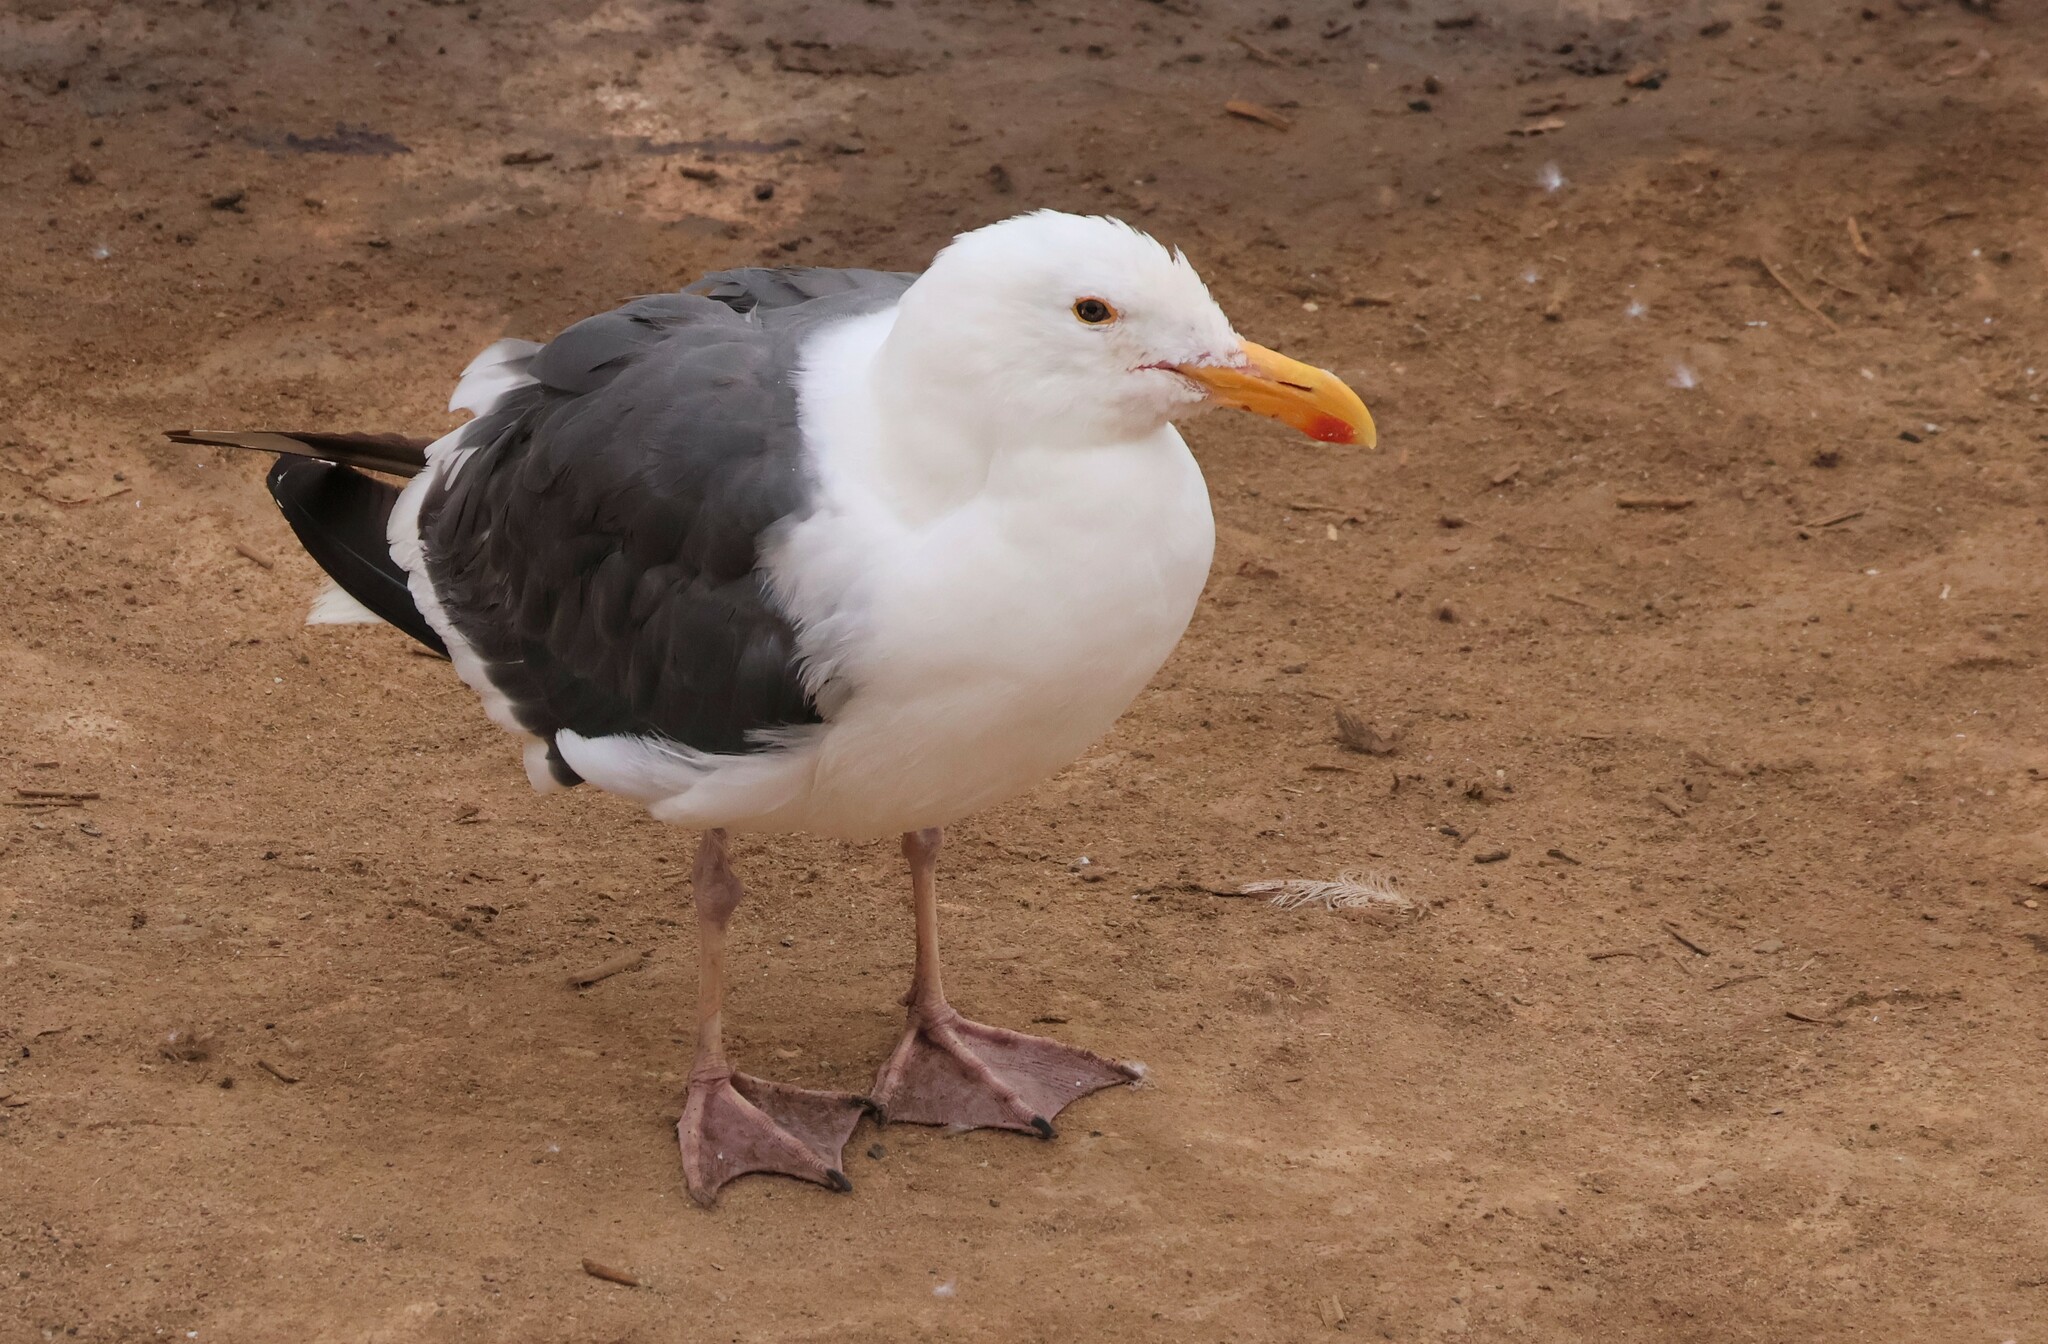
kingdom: Animalia
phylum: Chordata
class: Aves
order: Charadriiformes
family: Laridae
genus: Larus
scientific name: Larus occidentalis
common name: Western gull
